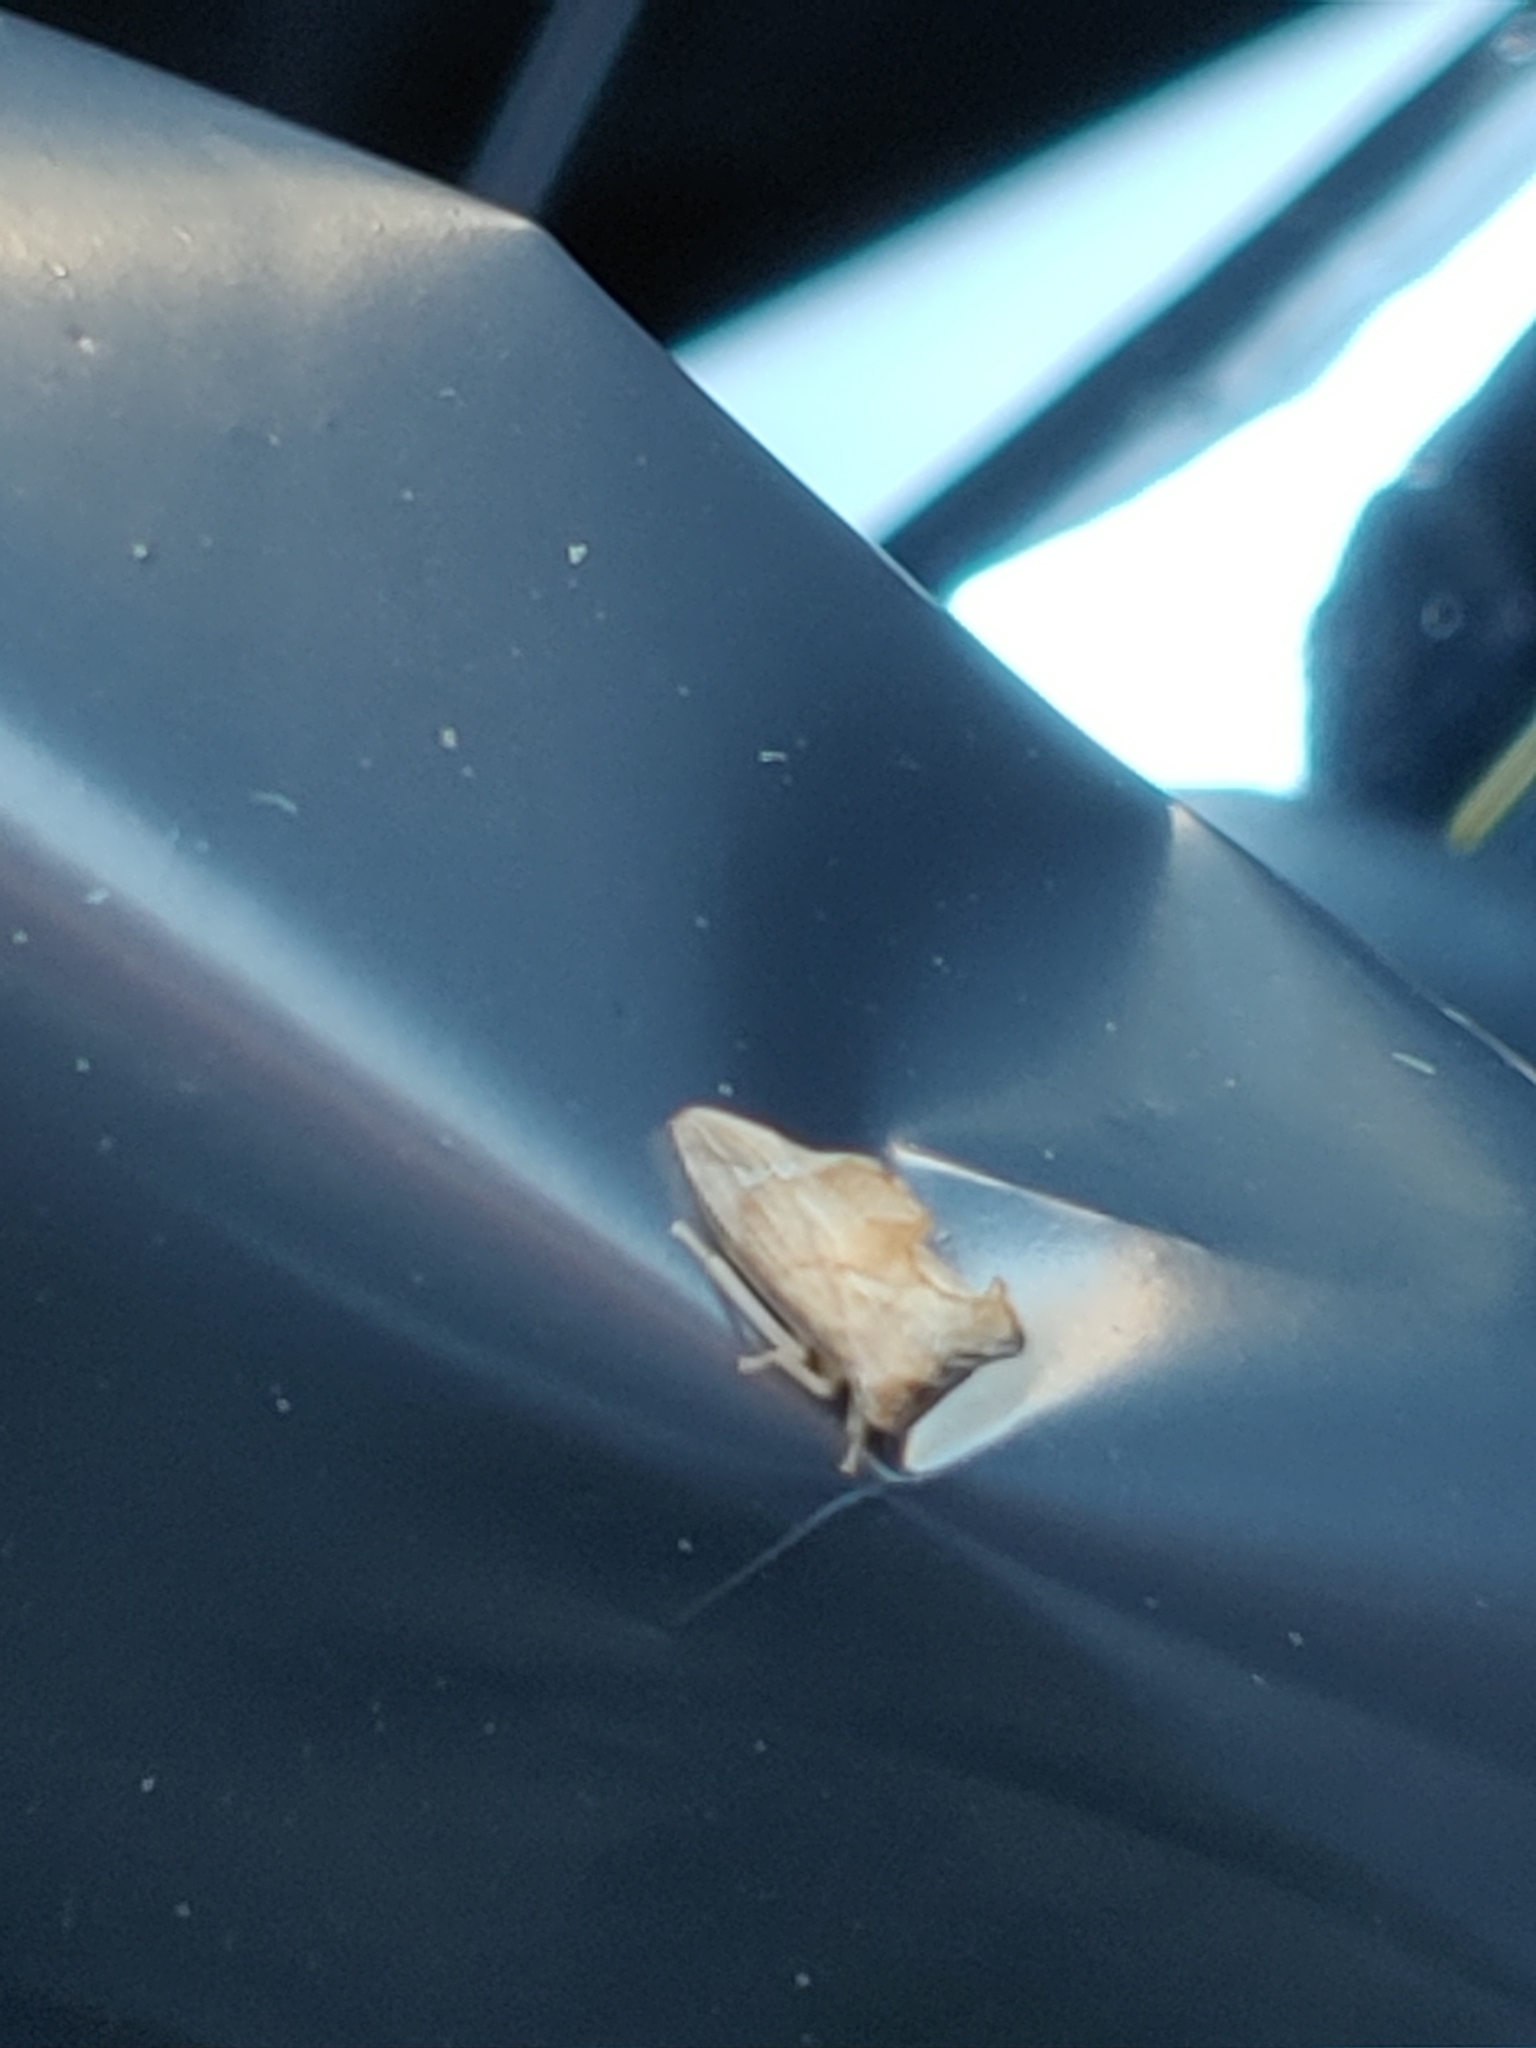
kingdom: Animalia
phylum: Arthropoda
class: Insecta
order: Hemiptera
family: Membracidae
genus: Entylia
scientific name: Entylia carinata
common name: Keeled treehopper
